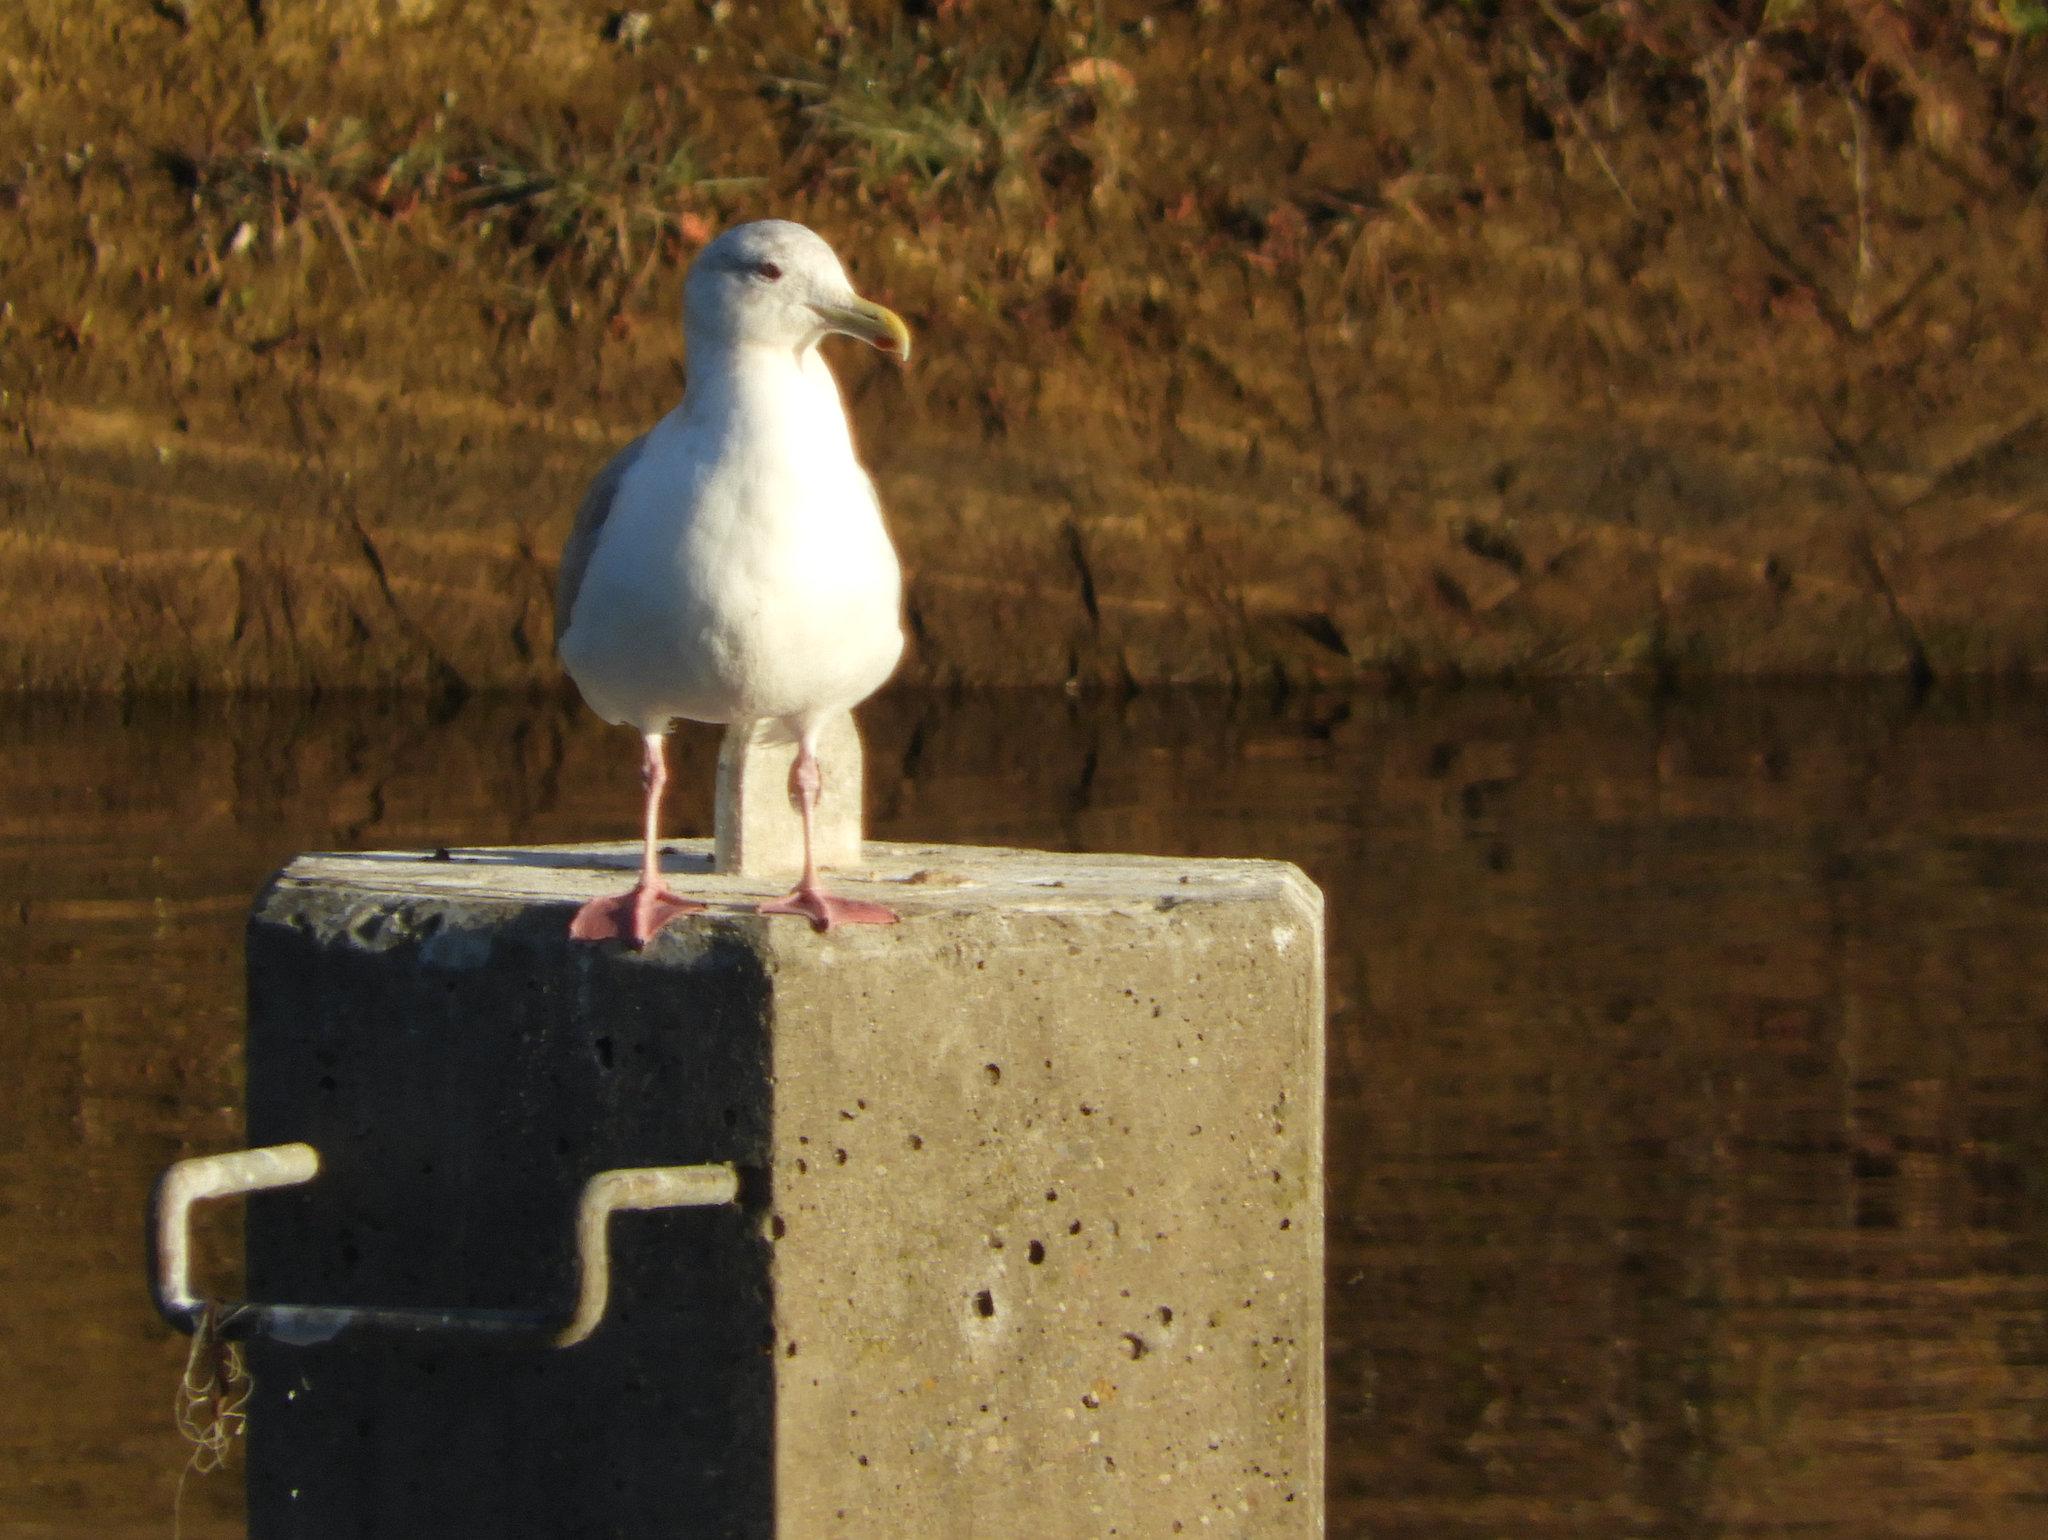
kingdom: Animalia
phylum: Chordata
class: Aves
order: Charadriiformes
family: Laridae
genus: Larus
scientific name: Larus argentatus
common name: Herring gull
